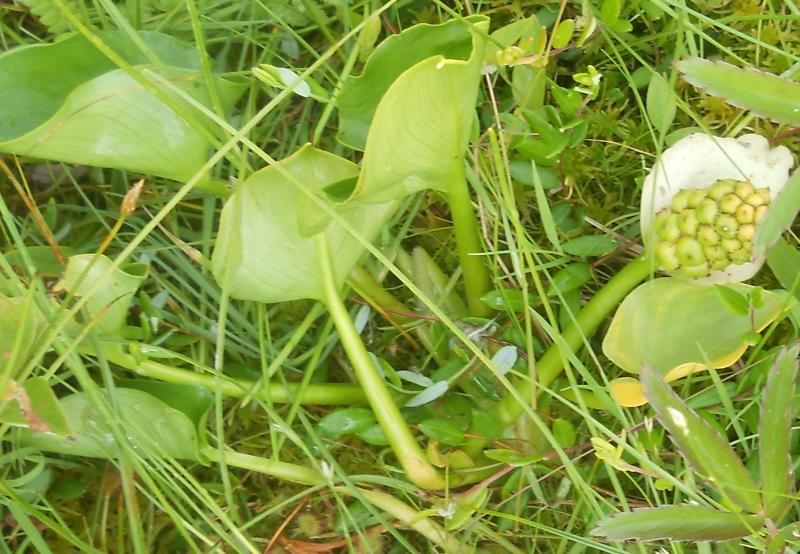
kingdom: Plantae
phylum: Tracheophyta
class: Liliopsida
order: Alismatales
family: Araceae
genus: Calla
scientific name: Calla palustris
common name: Bog arum
